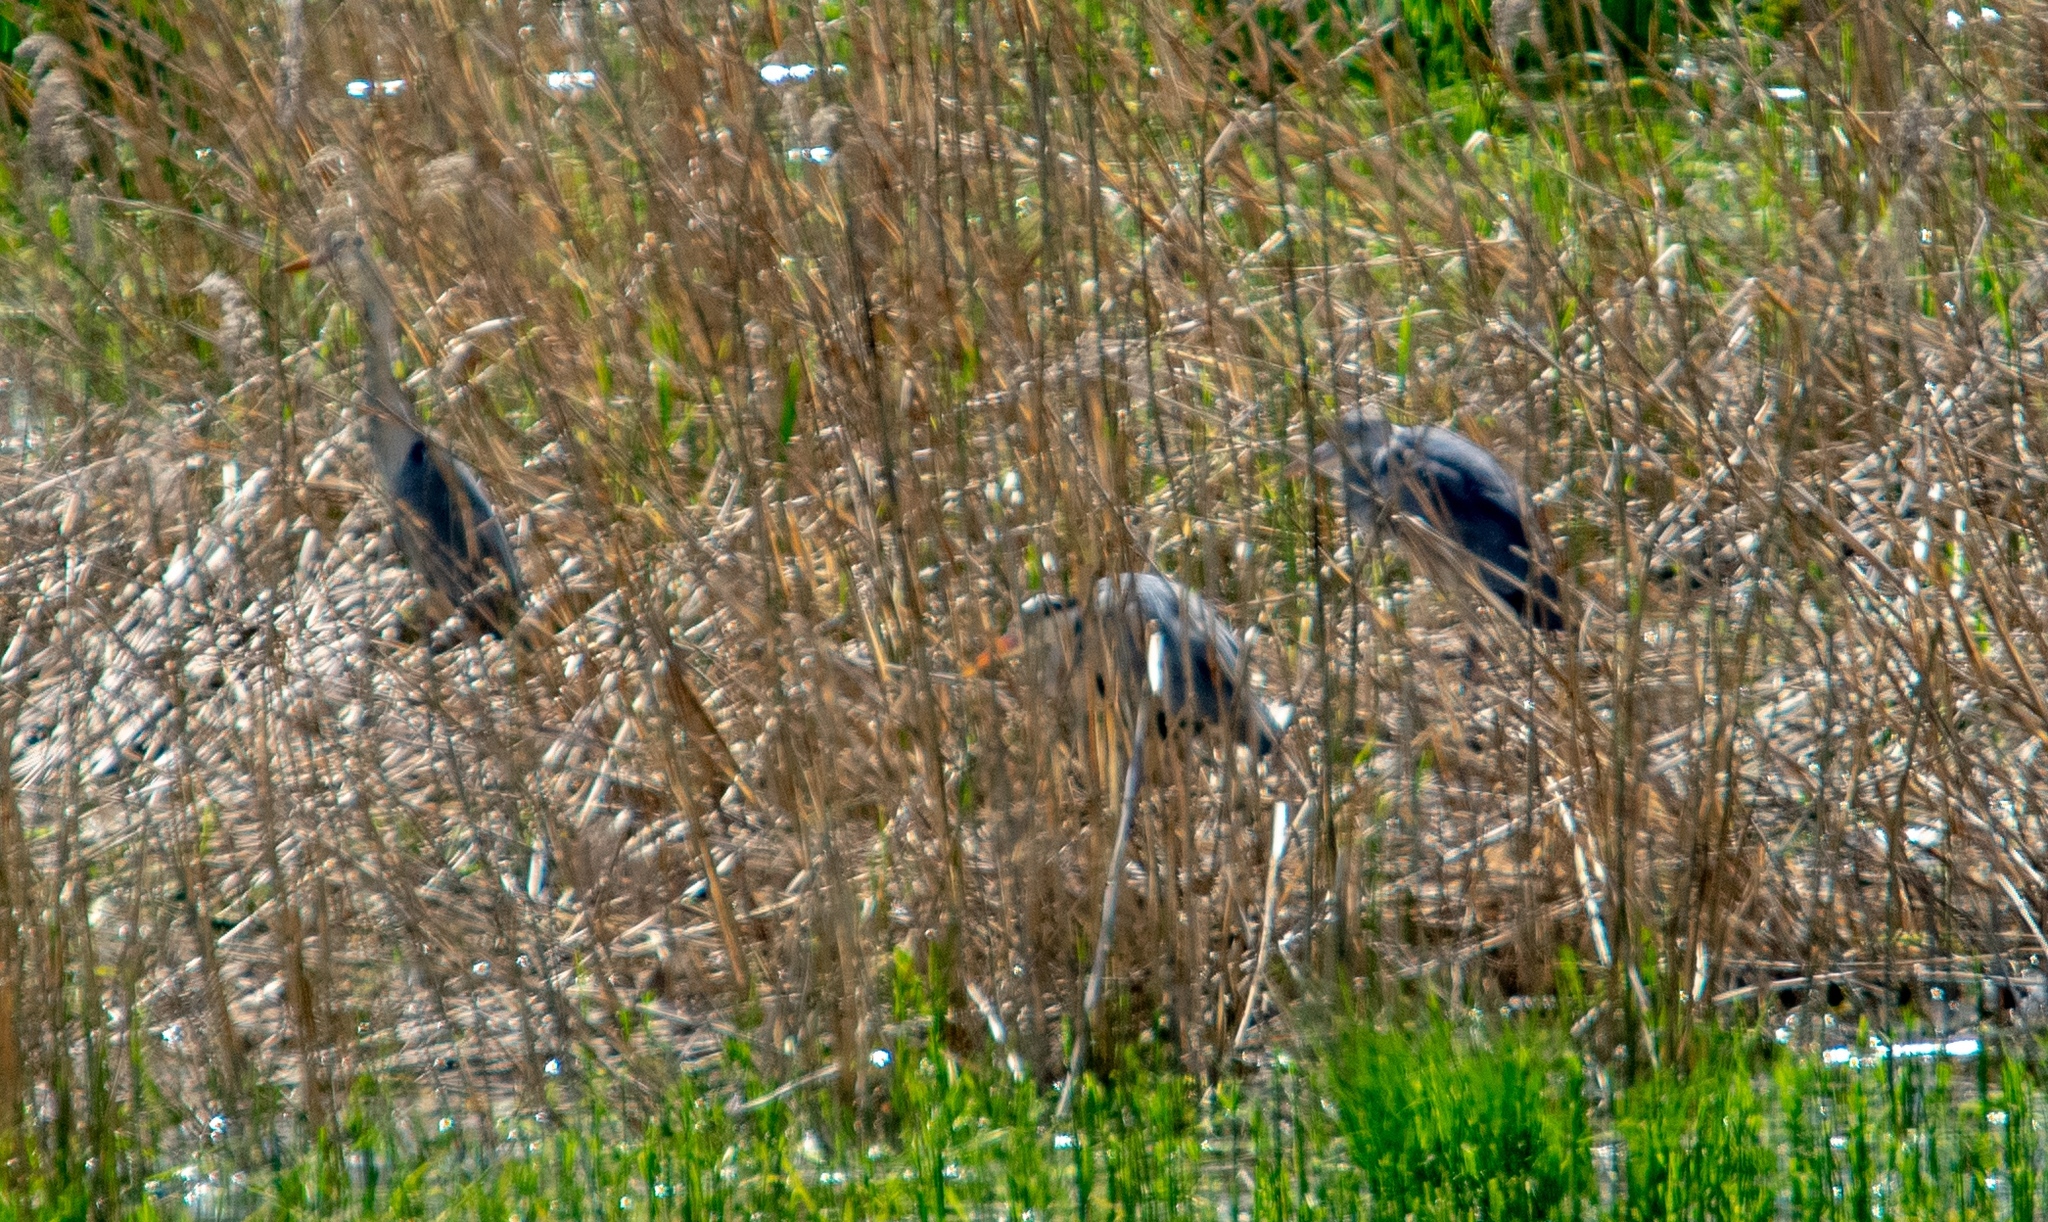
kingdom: Animalia
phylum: Chordata
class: Aves
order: Pelecaniformes
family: Ardeidae
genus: Ardea
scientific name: Ardea cinerea
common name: Grey heron
